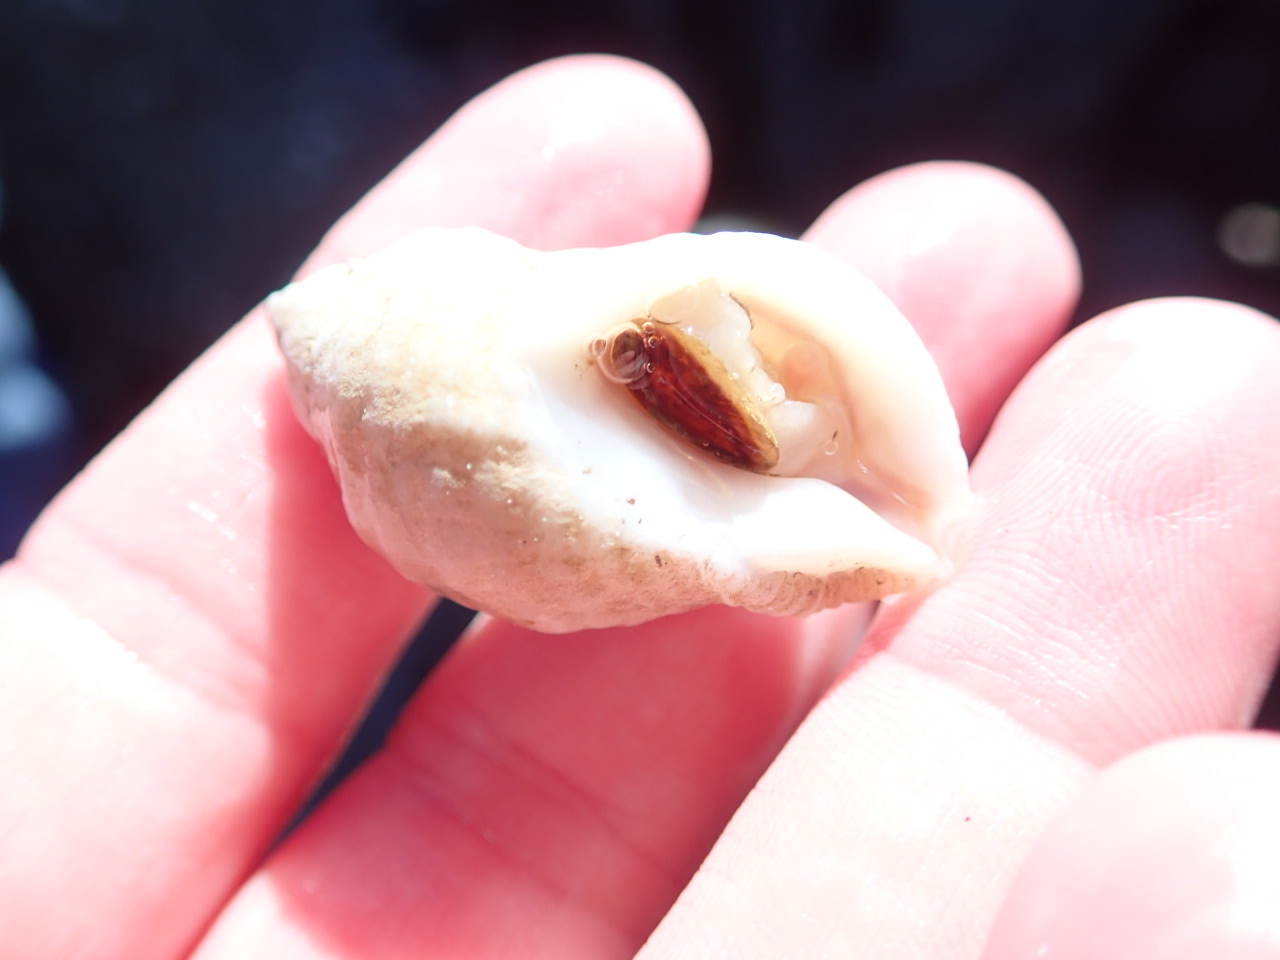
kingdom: Animalia
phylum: Mollusca
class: Gastropoda
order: Neogastropoda
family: Muricidae
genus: Nucella
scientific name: Nucella lapillus
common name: Dog whelk
